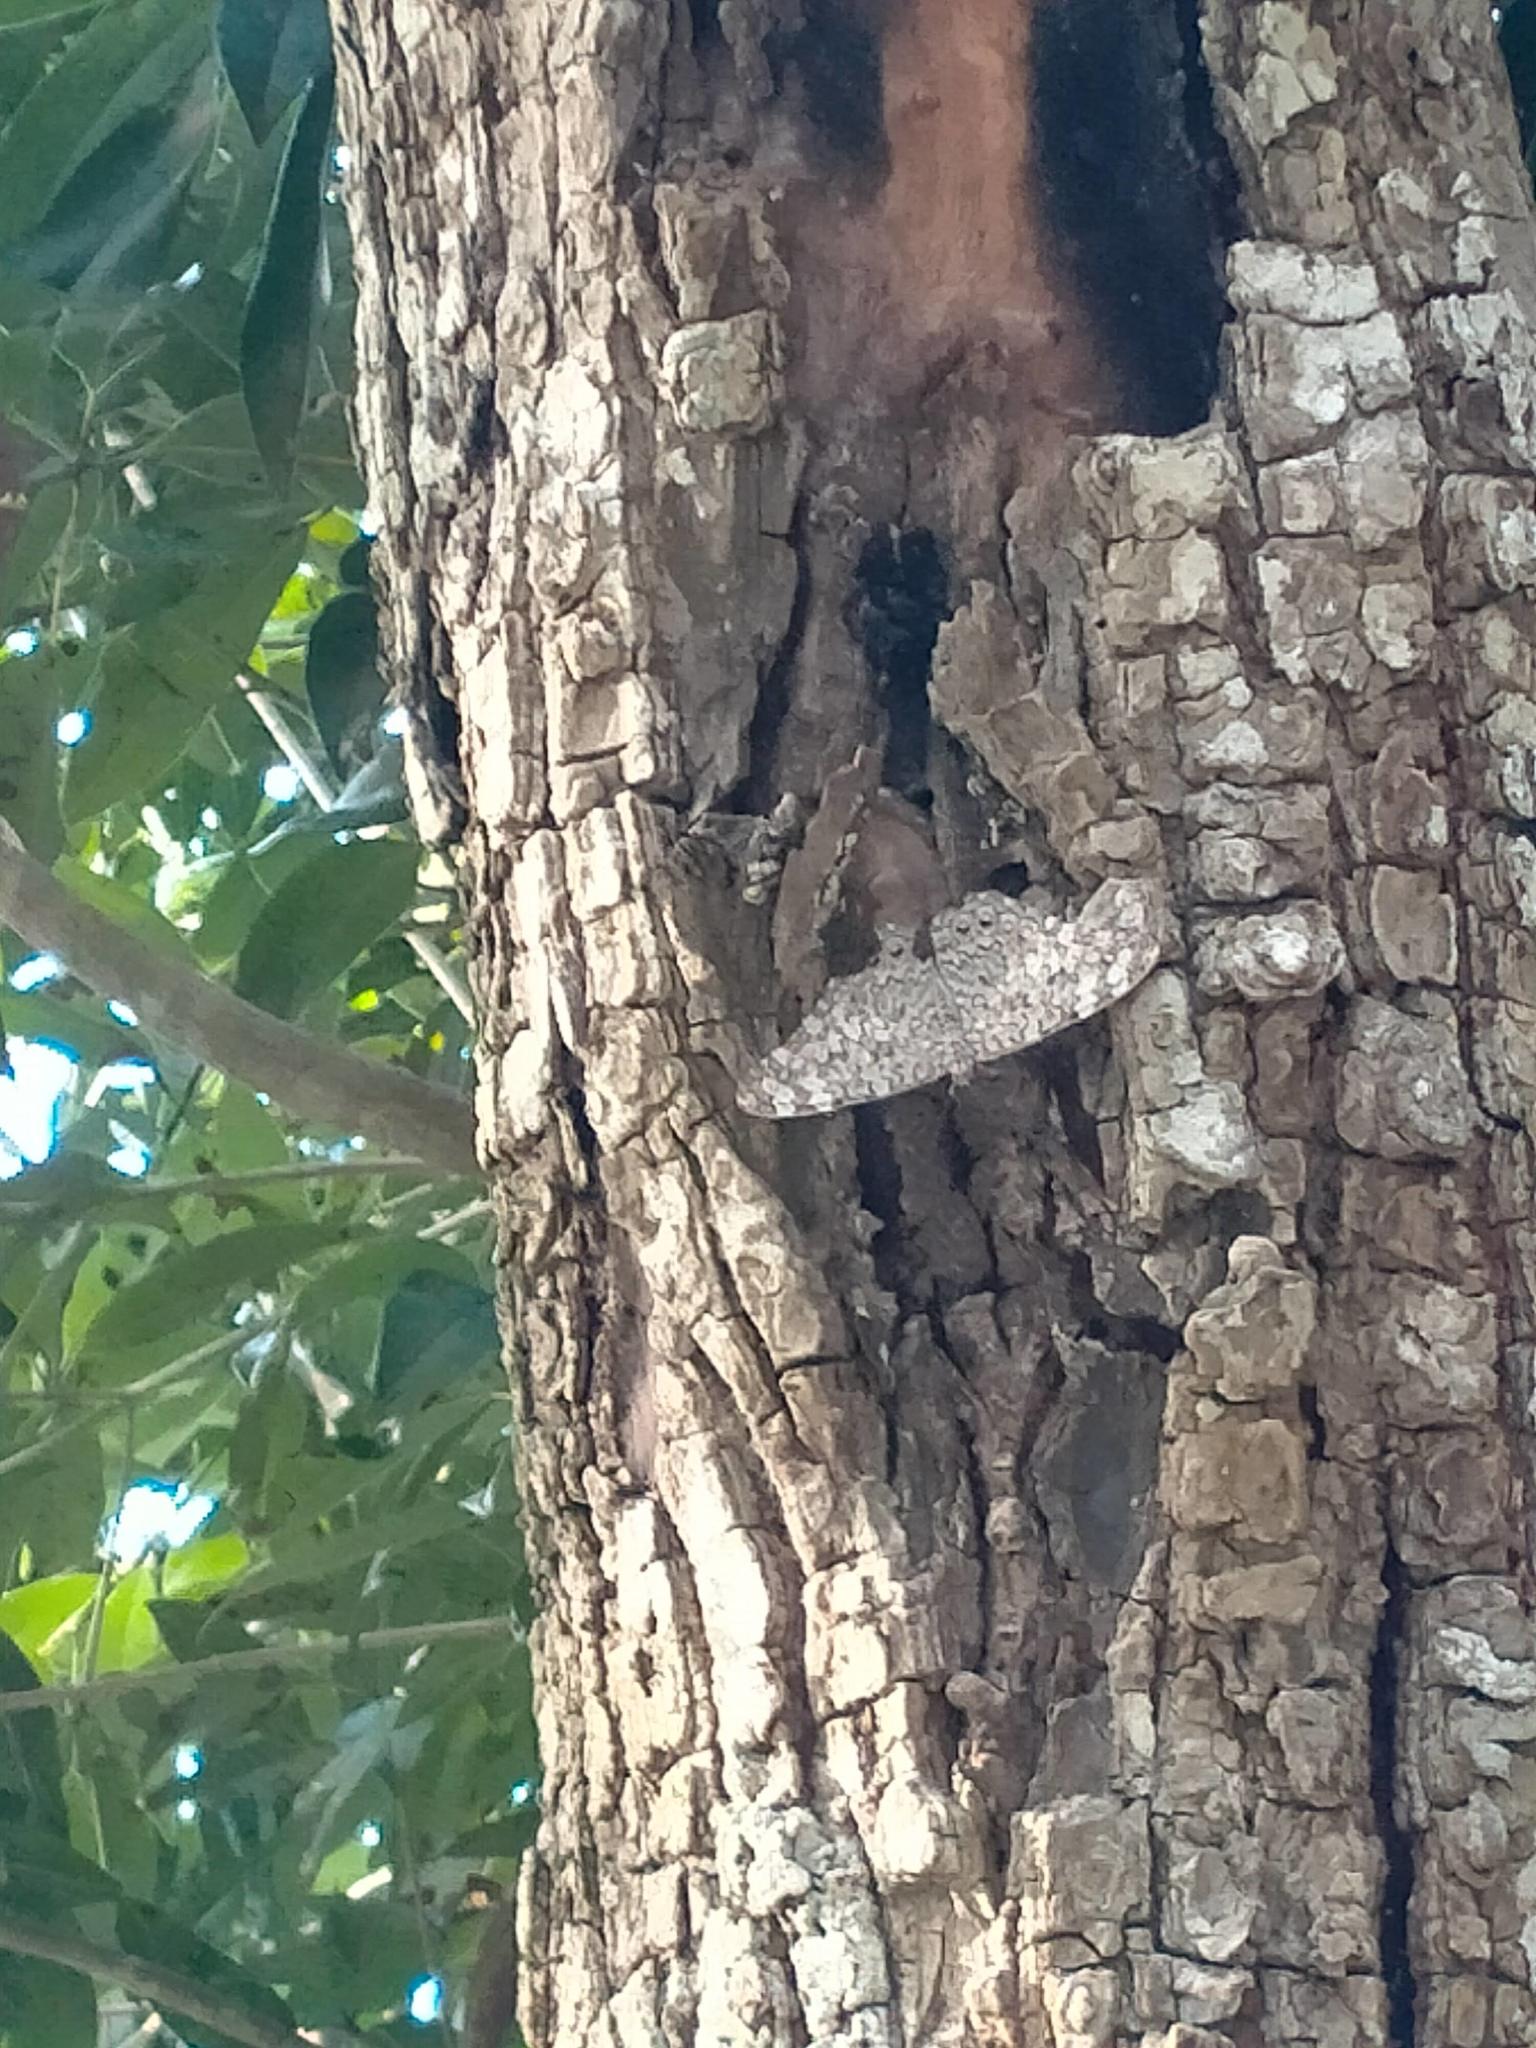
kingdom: Animalia
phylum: Arthropoda
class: Insecta
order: Lepidoptera
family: Nymphalidae
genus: Hamadryas
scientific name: Hamadryas februa
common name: Gray cracker
